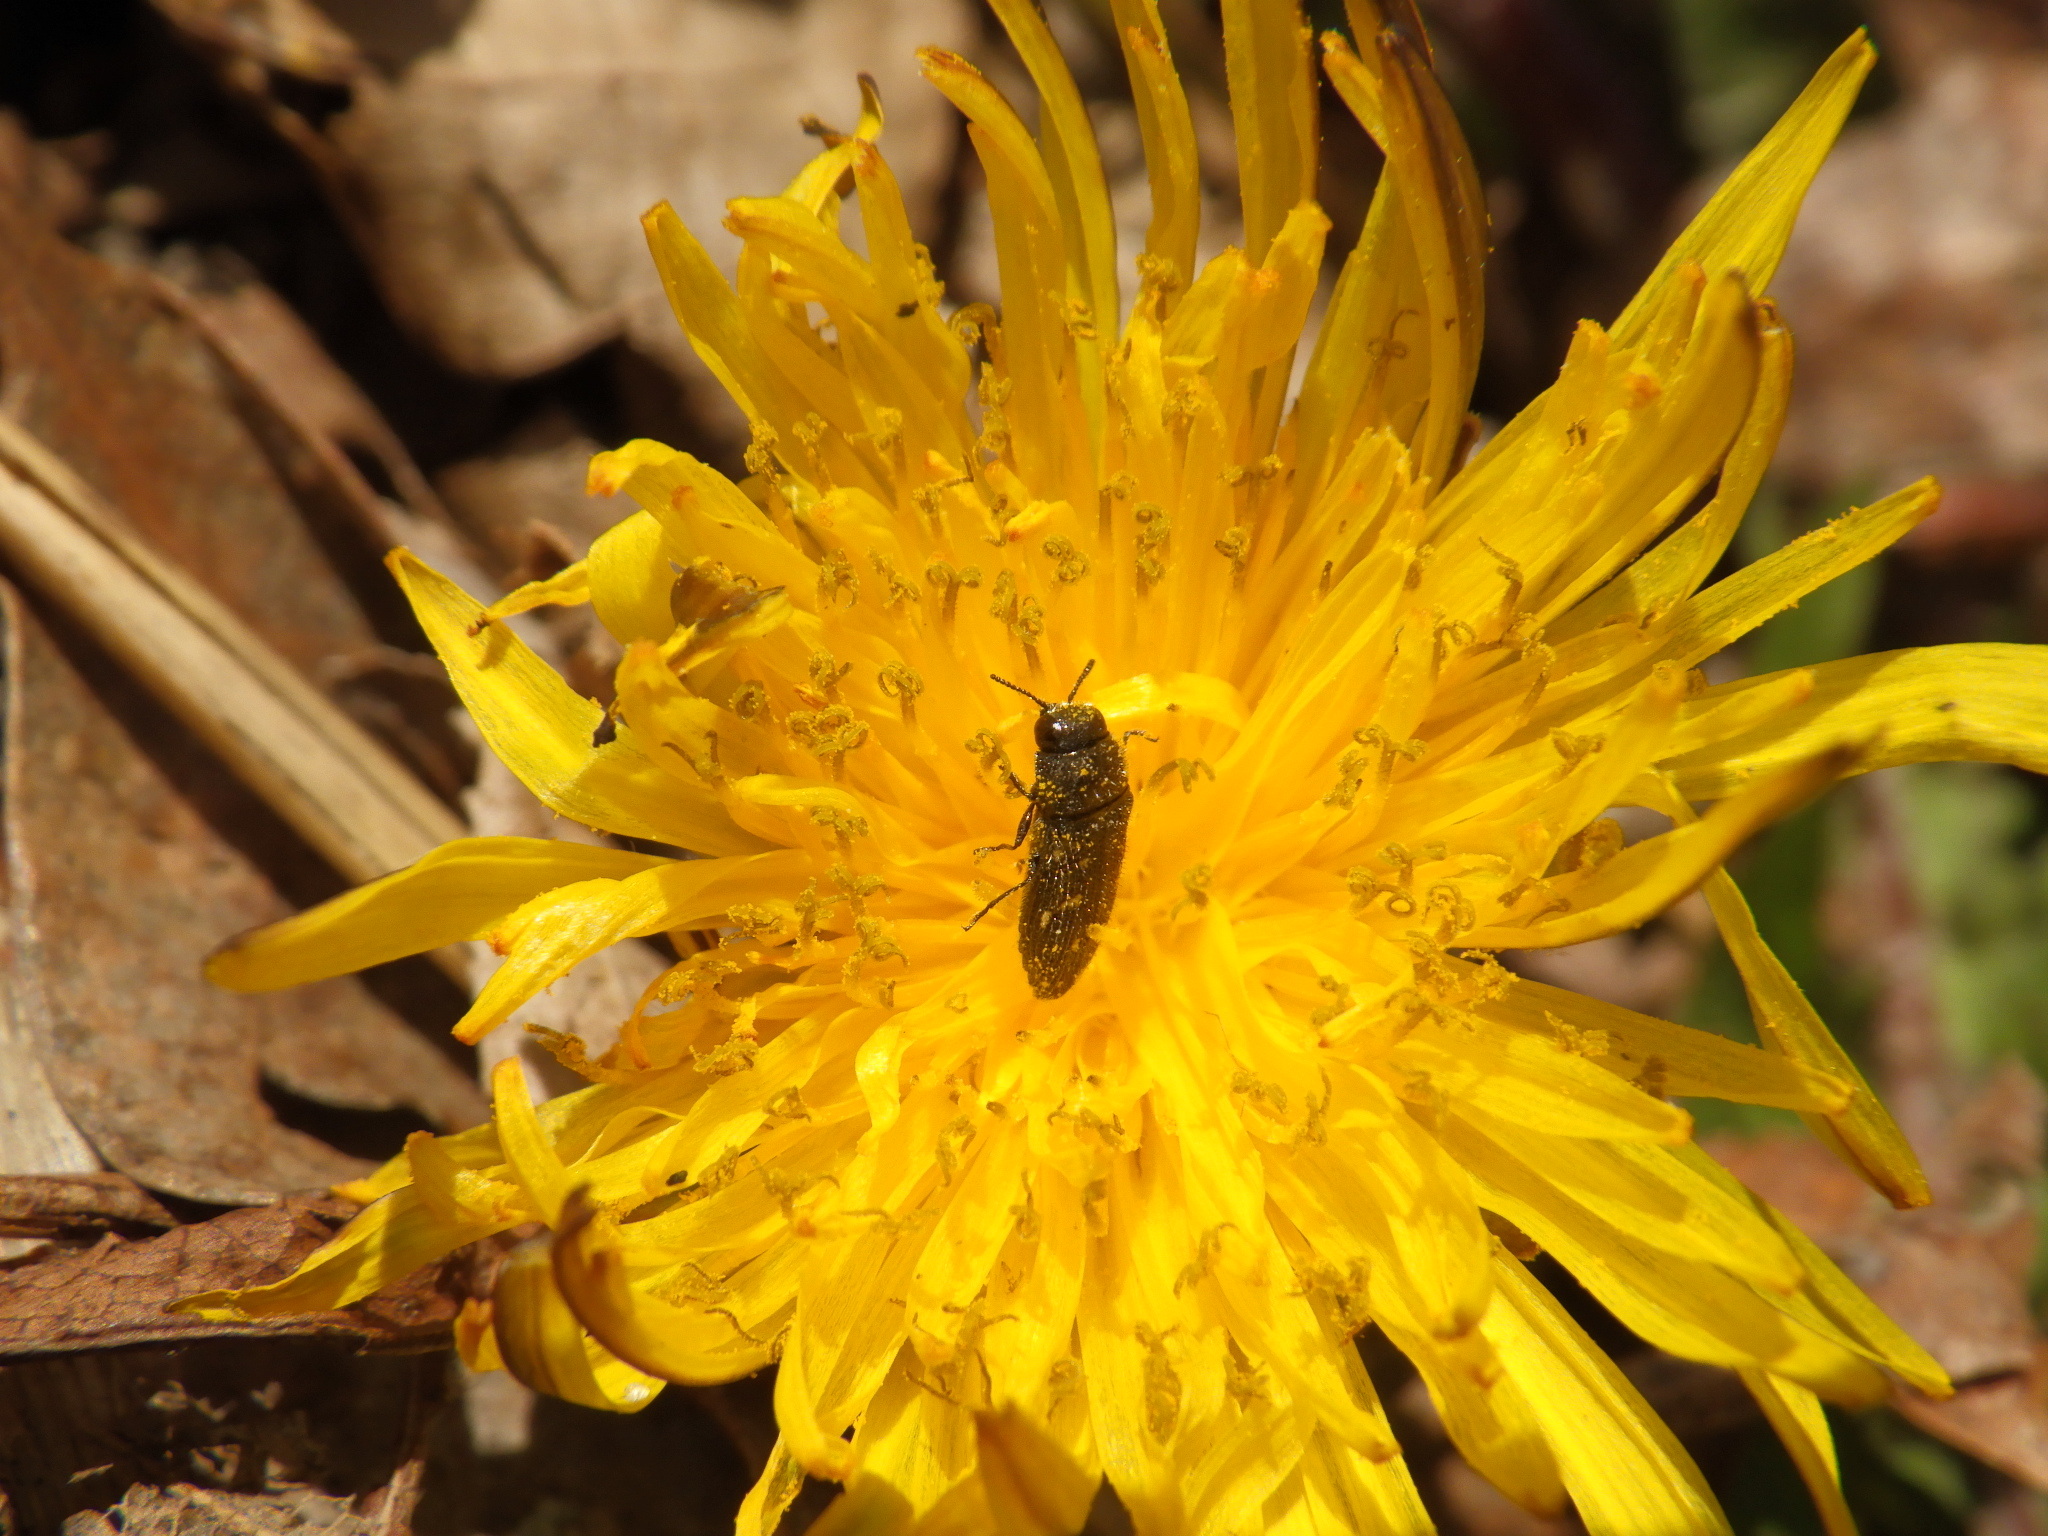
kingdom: Animalia
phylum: Arthropoda
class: Insecta
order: Coleoptera
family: Buprestidae
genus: Acmaeodera
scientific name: Acmaeodera tubulus
